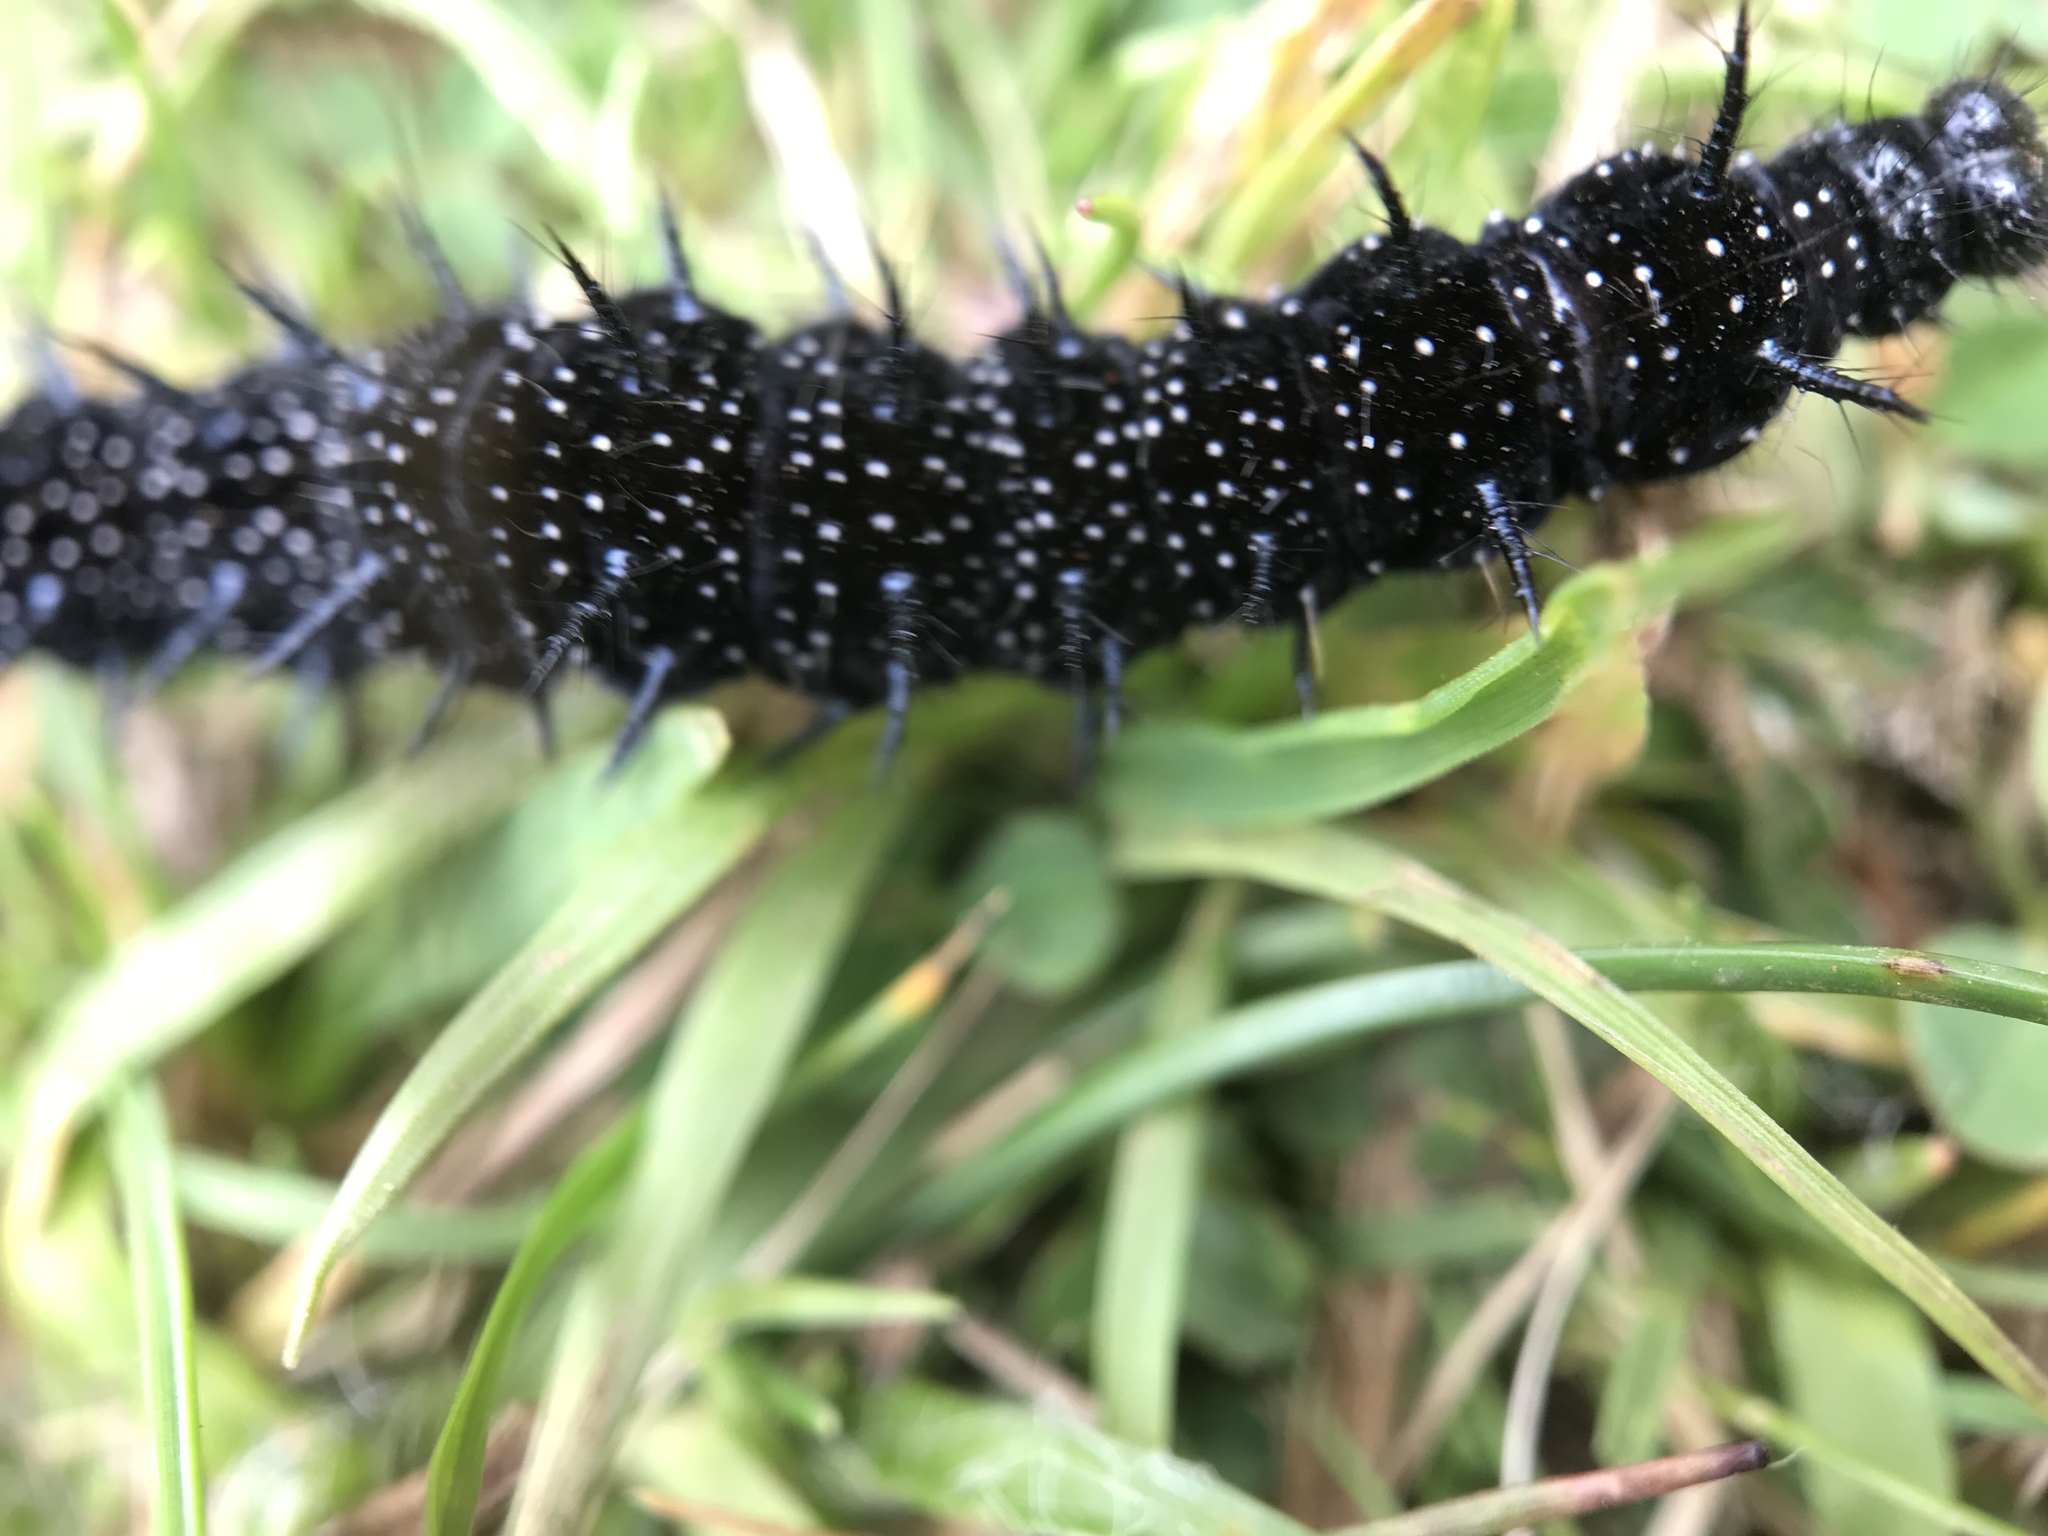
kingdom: Animalia
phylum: Arthropoda
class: Insecta
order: Lepidoptera
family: Nymphalidae
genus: Aglais
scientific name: Aglais io
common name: Peacock
